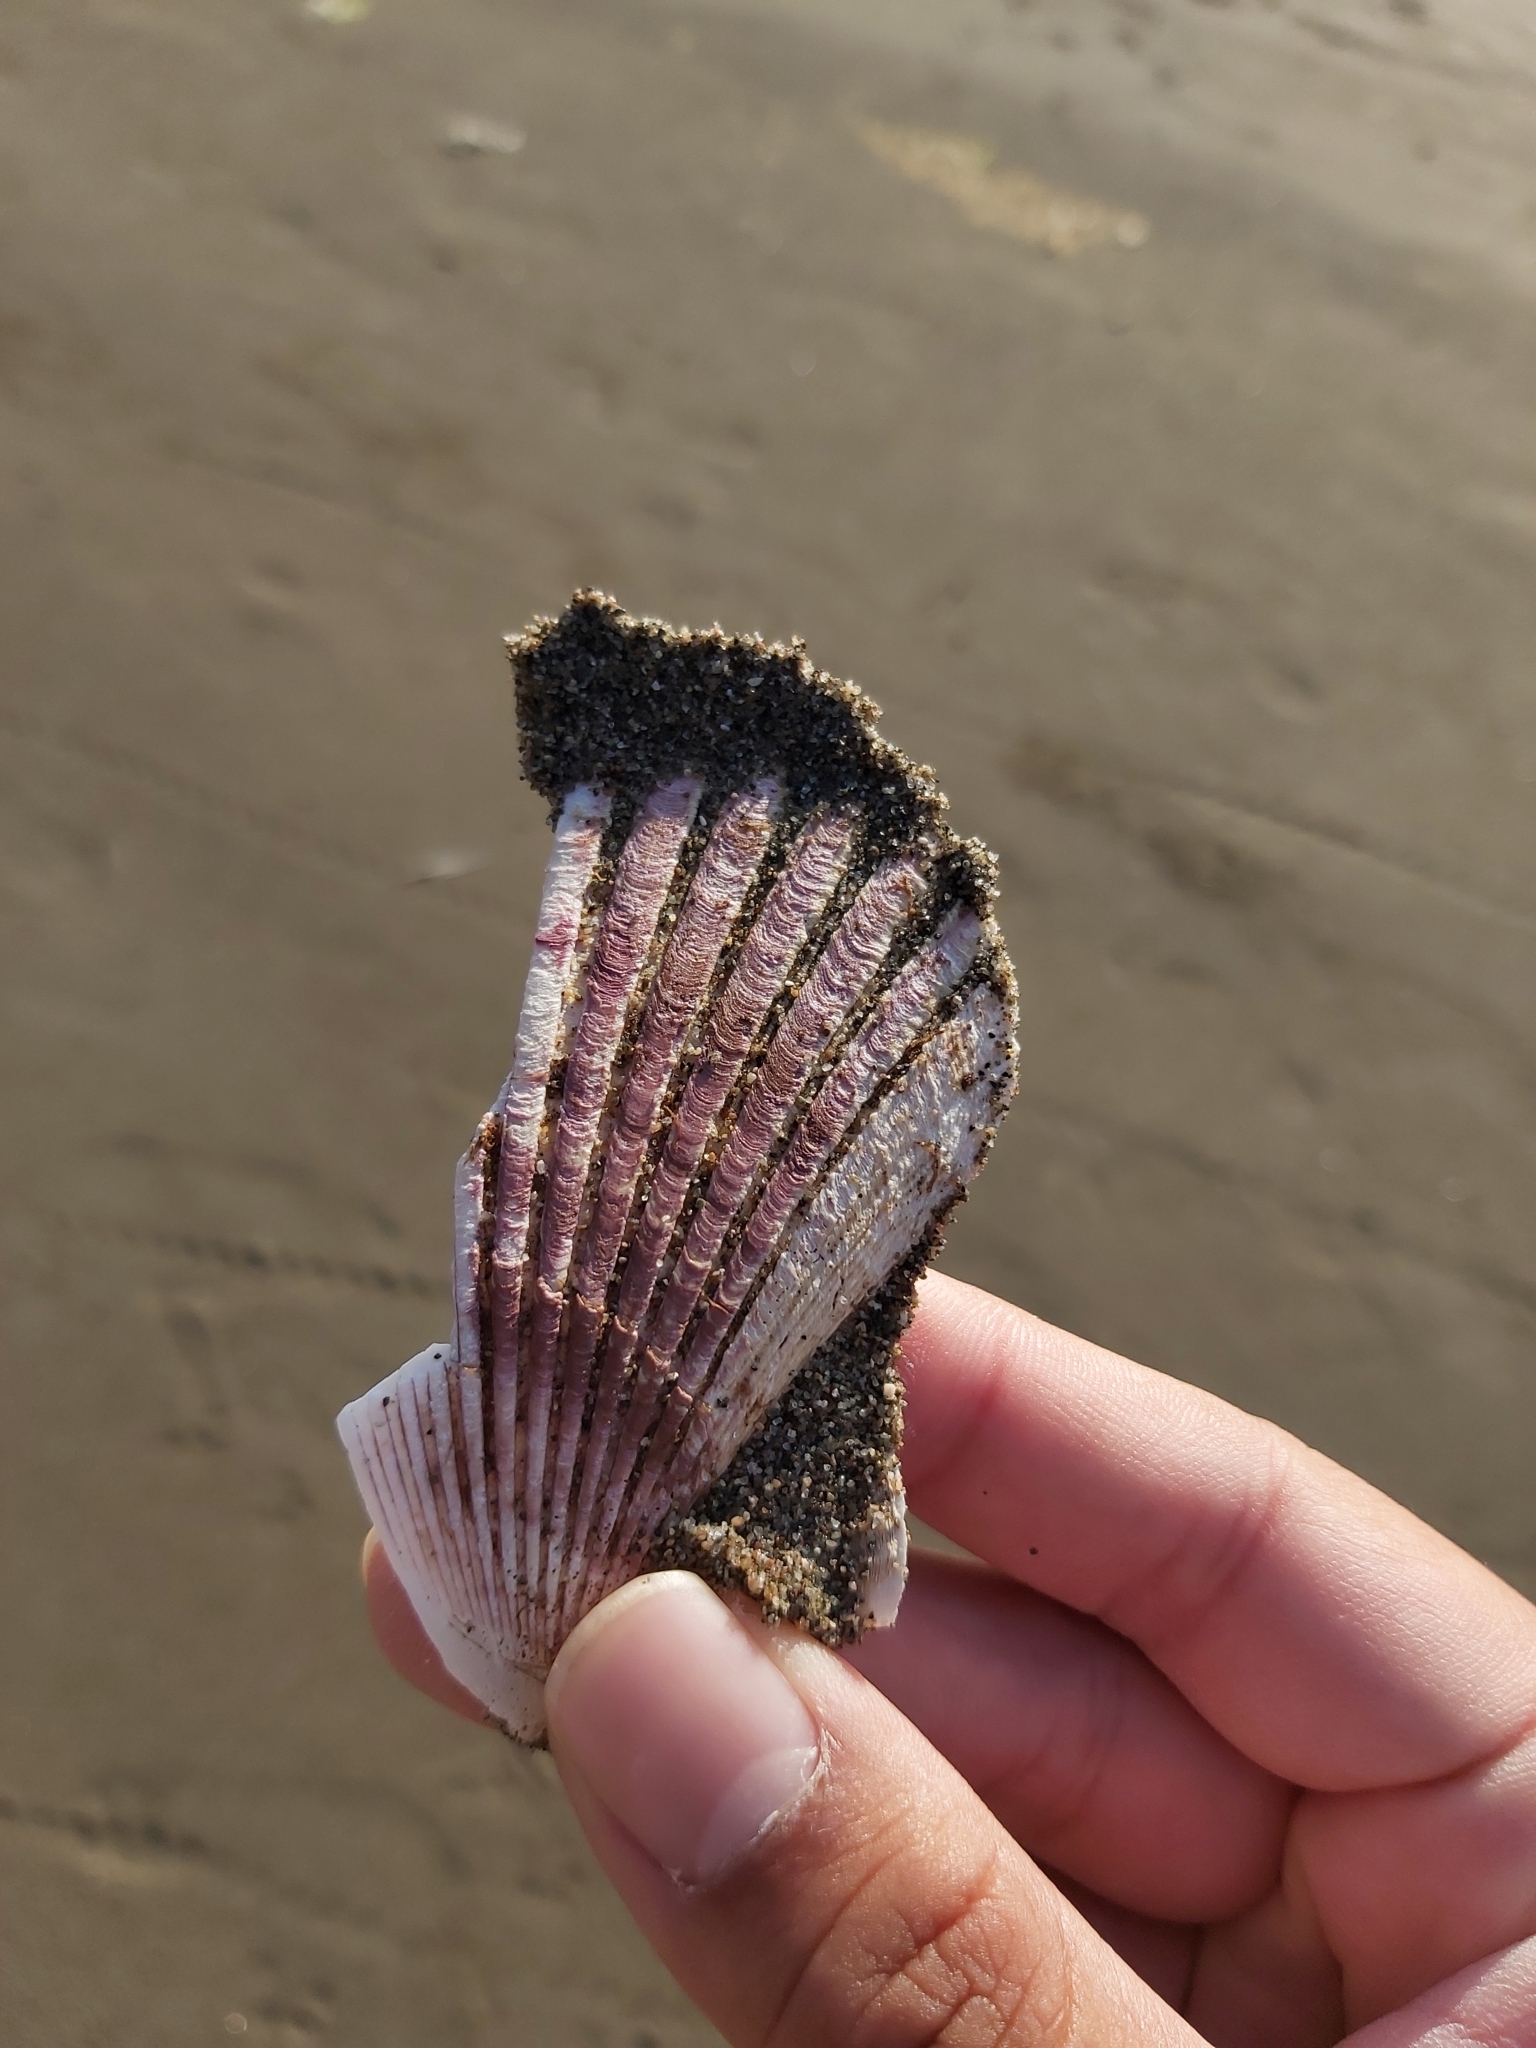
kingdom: Animalia
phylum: Mollusca
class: Bivalvia
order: Pectinida
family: Pectinidae
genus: Argopecten
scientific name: Argopecten purpuratus
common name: Peruvian scallop
